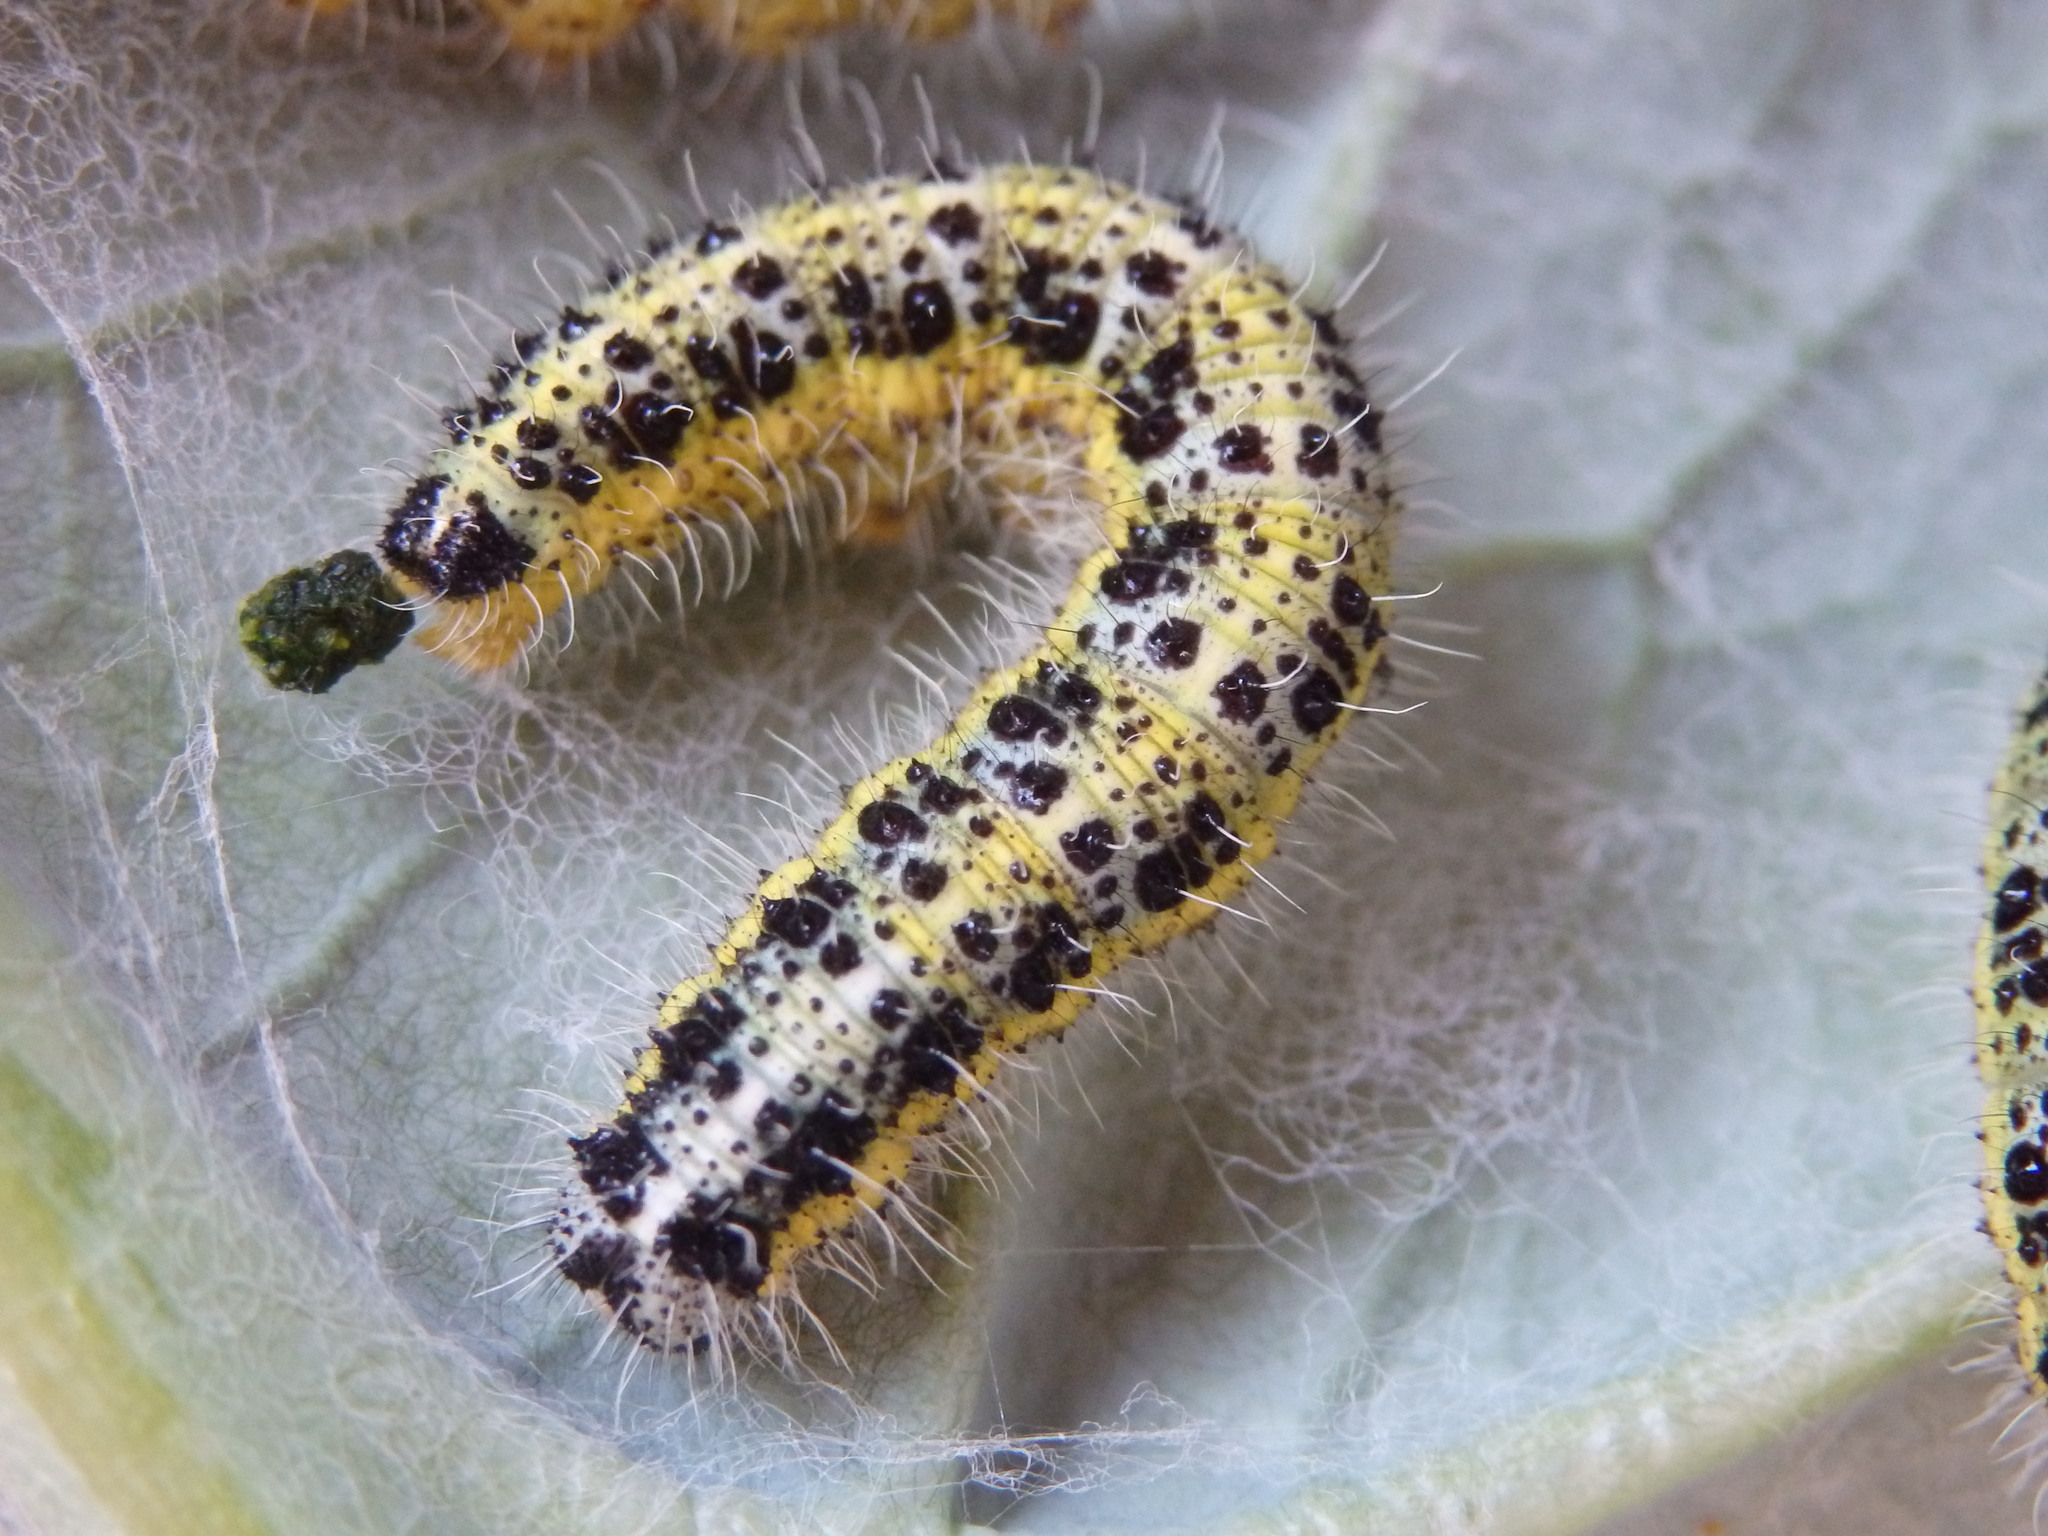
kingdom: Animalia
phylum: Arthropoda
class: Insecta
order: Lepidoptera
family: Pieridae
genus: Pieris
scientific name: Pieris brassicae
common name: Large white
